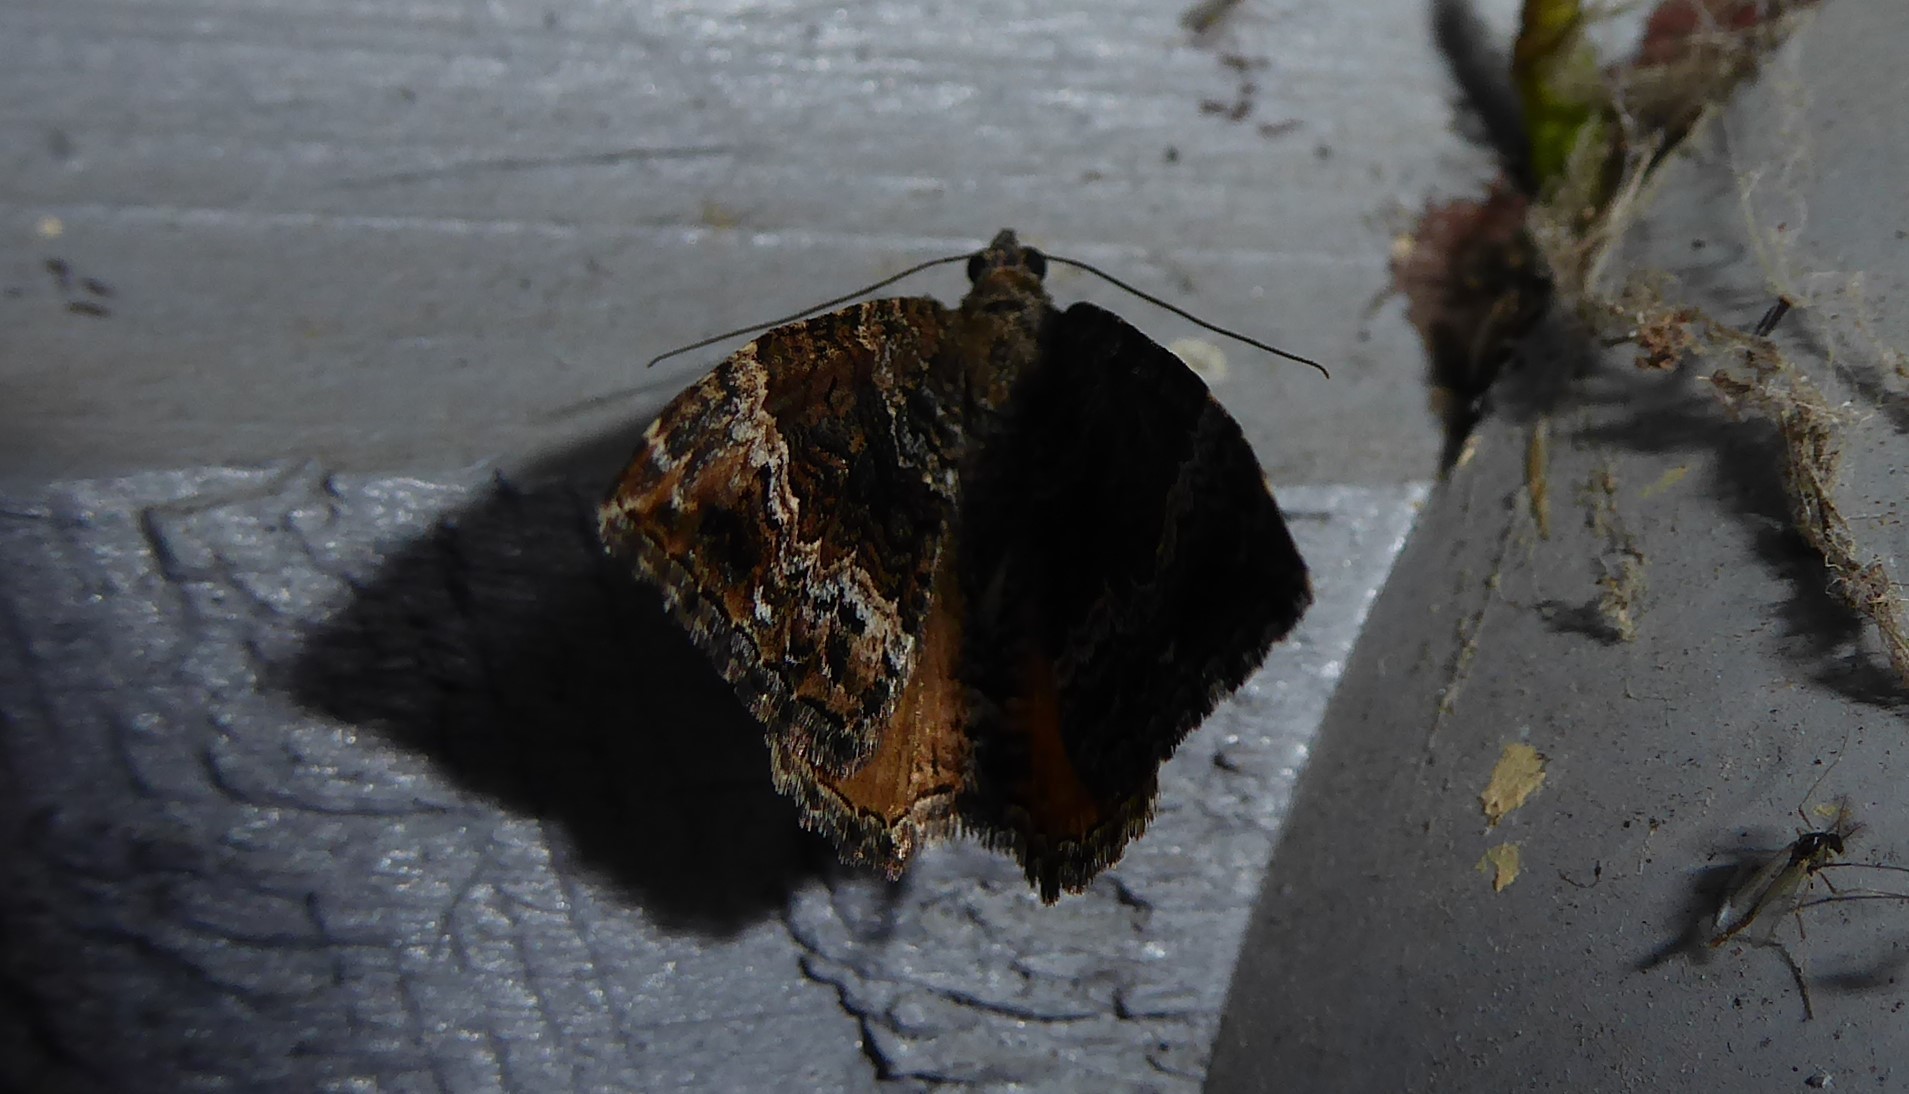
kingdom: Animalia
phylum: Arthropoda
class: Insecta
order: Lepidoptera
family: Geometridae
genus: Hydriomena
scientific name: Hydriomena deltoidata
